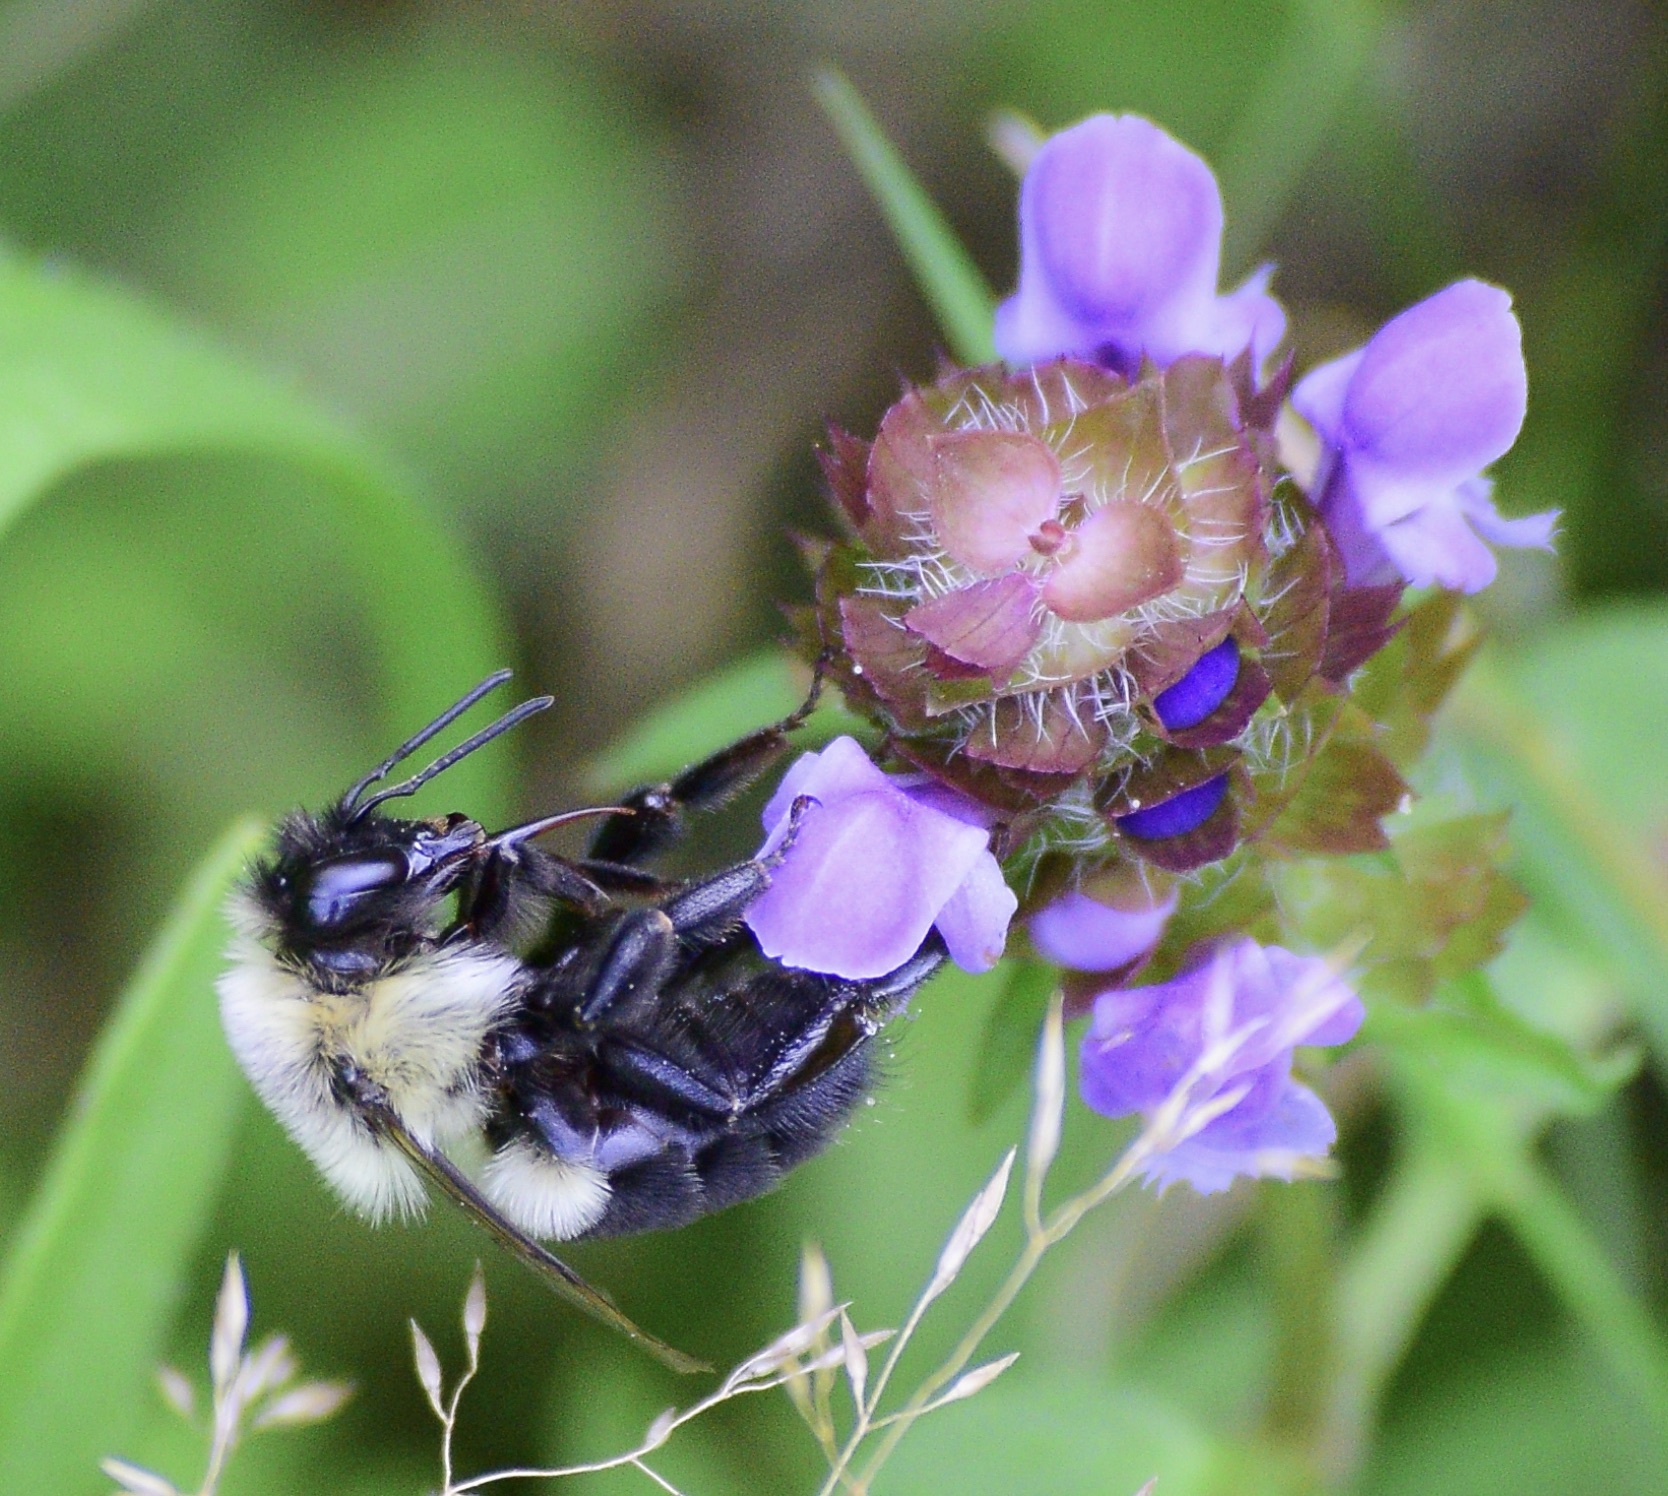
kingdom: Animalia
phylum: Arthropoda
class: Insecta
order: Hymenoptera
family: Apidae
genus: Bombus
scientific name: Bombus impatiens
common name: Common eastern bumble bee
